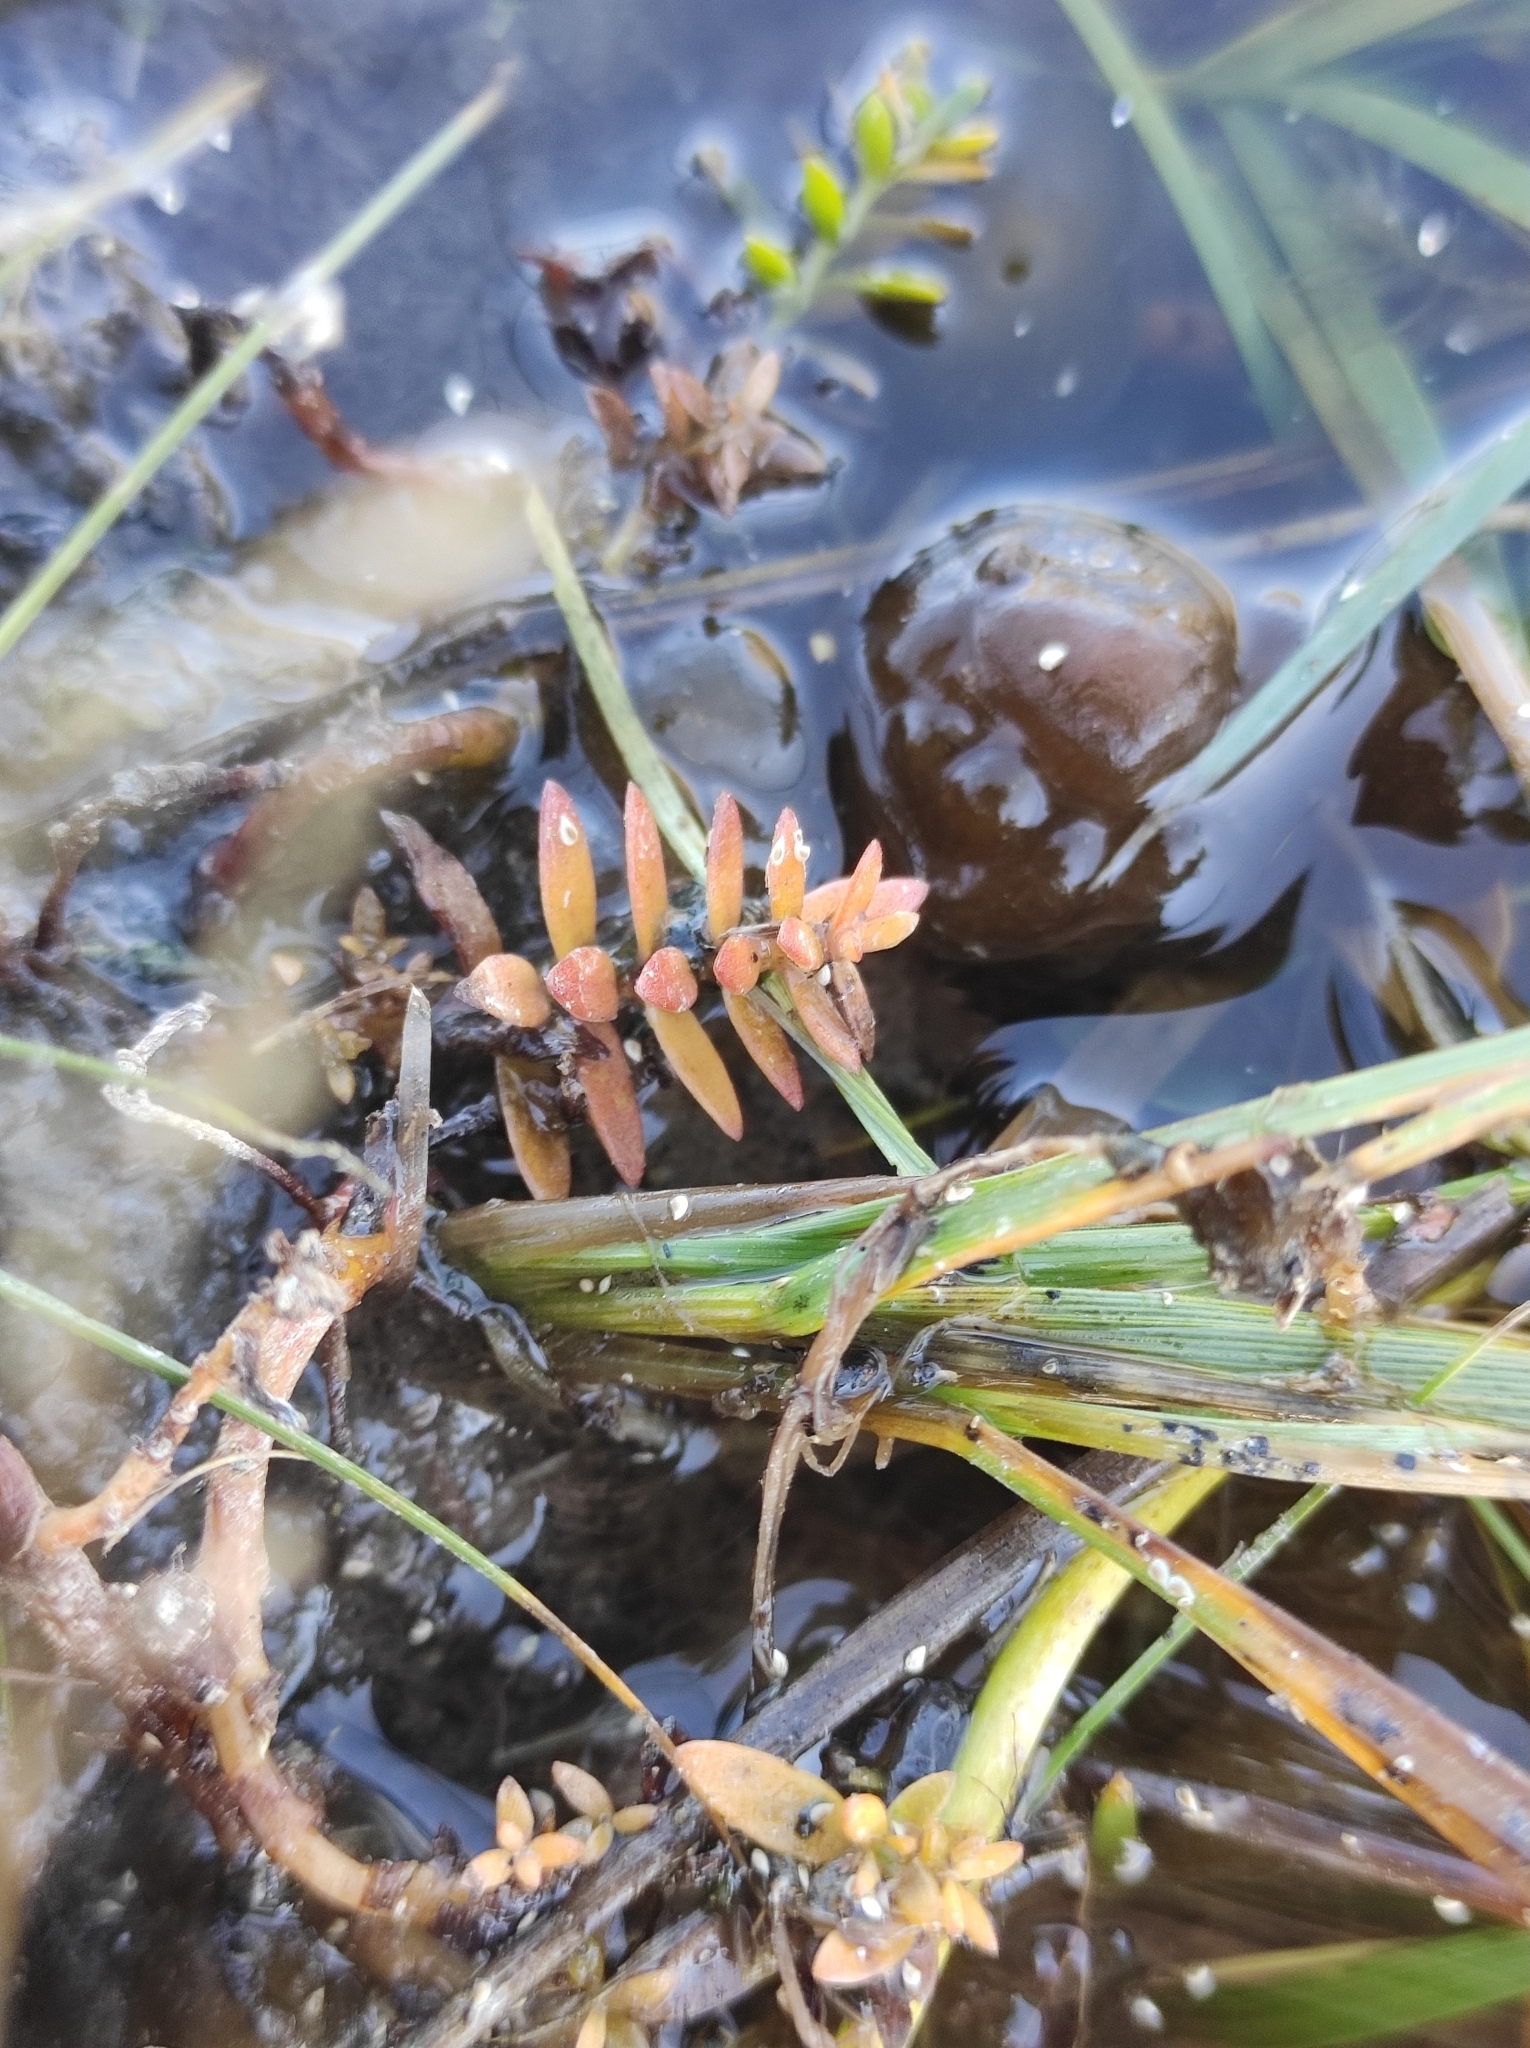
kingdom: Plantae
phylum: Tracheophyta
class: Magnoliopsida
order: Ericales
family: Primulaceae
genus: Lysimachia
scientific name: Lysimachia maritima
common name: Sea milkwort
